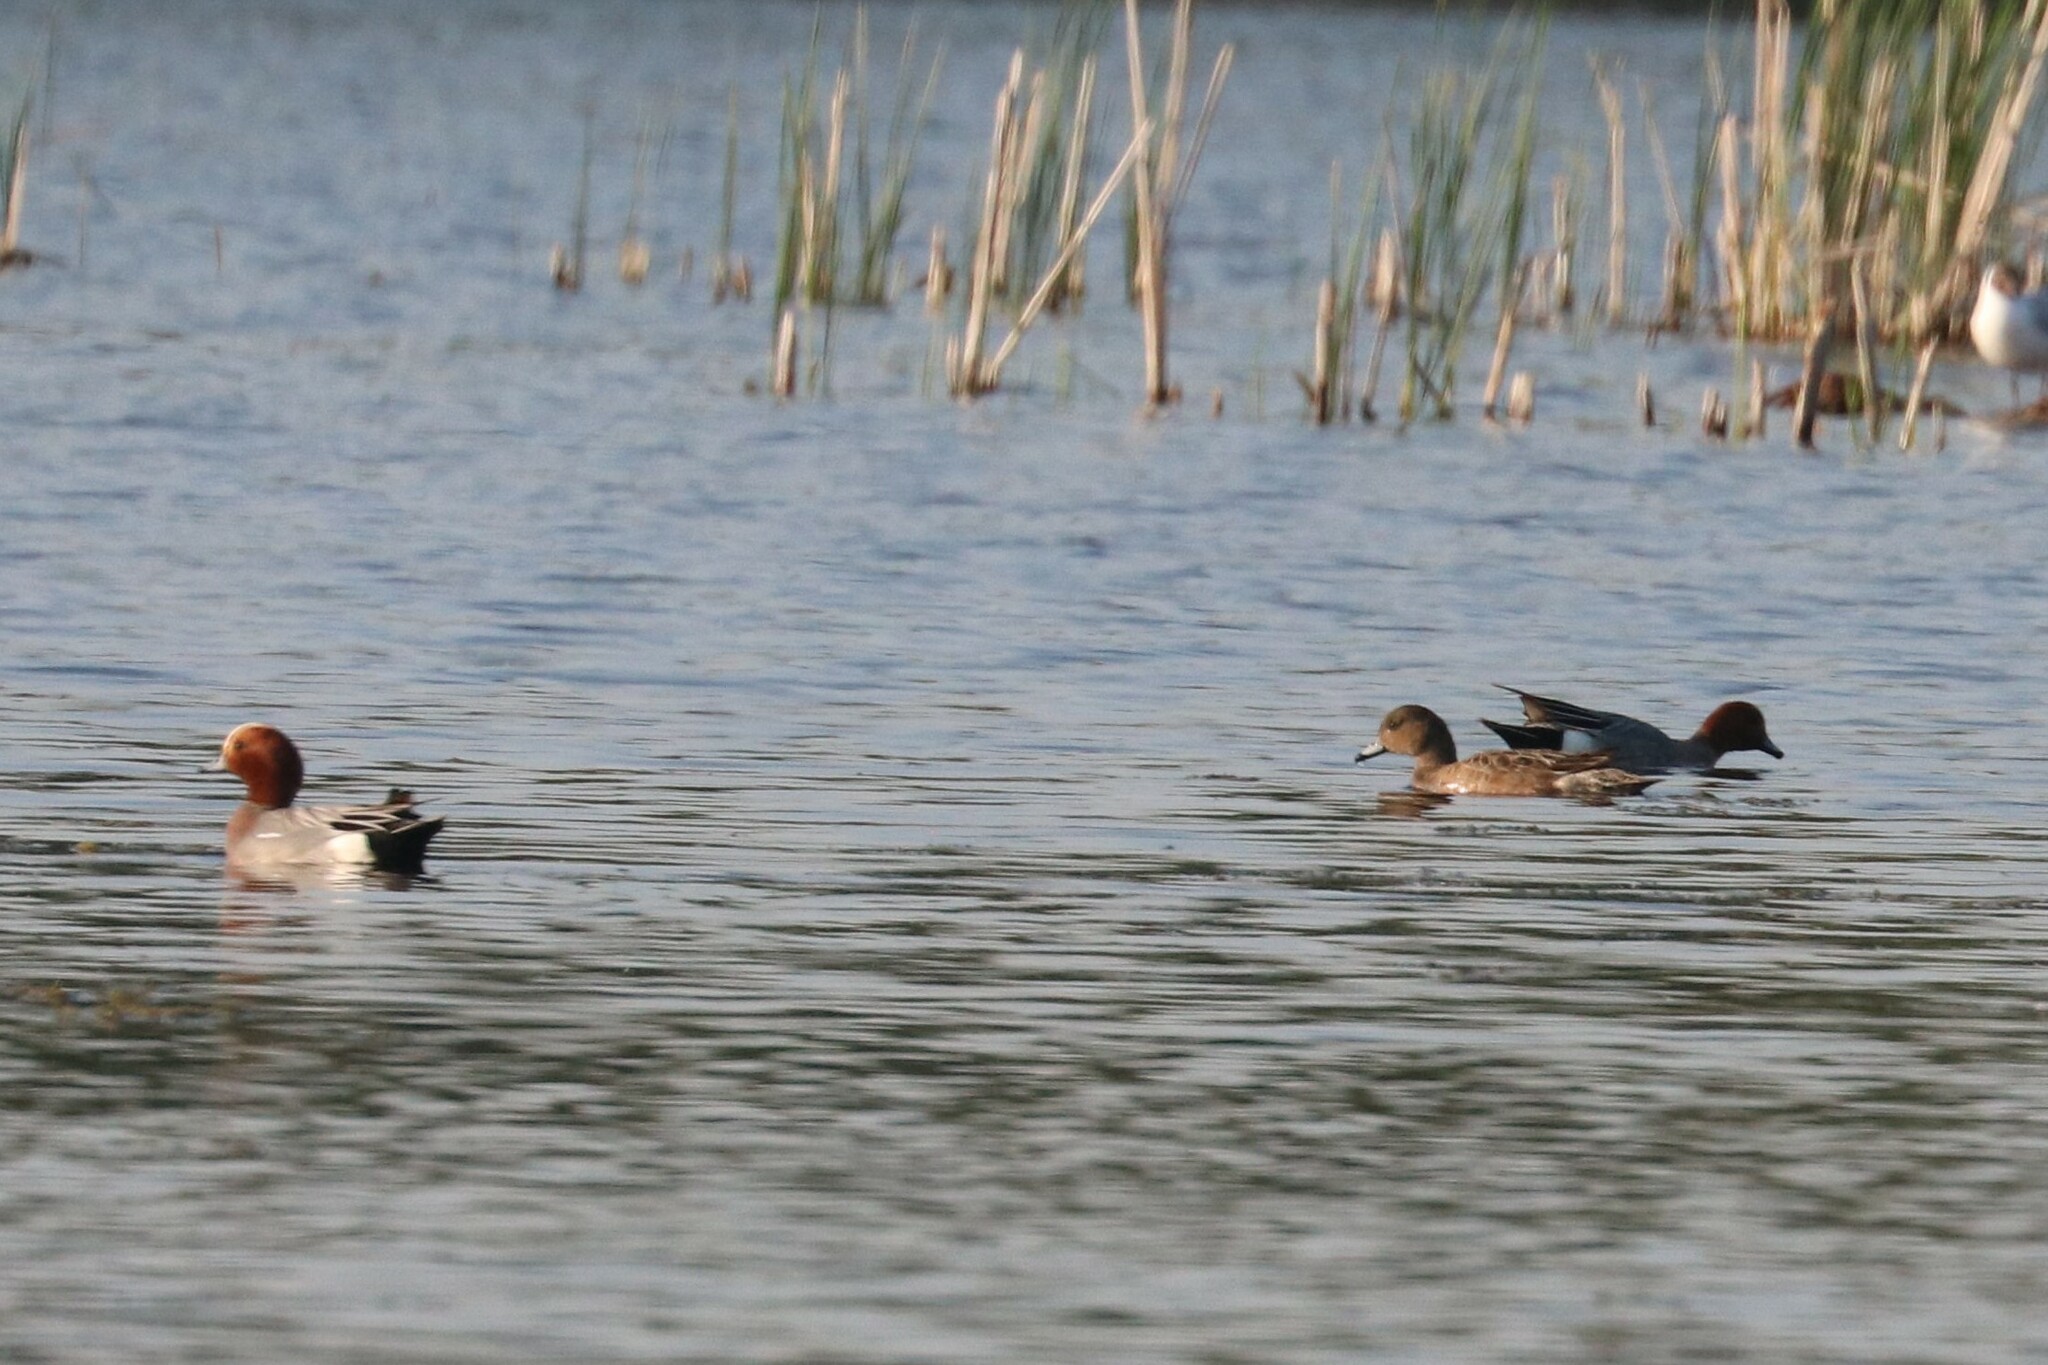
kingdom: Animalia
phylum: Chordata
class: Aves
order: Anseriformes
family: Anatidae
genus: Mareca
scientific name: Mareca penelope
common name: Eurasian wigeon
